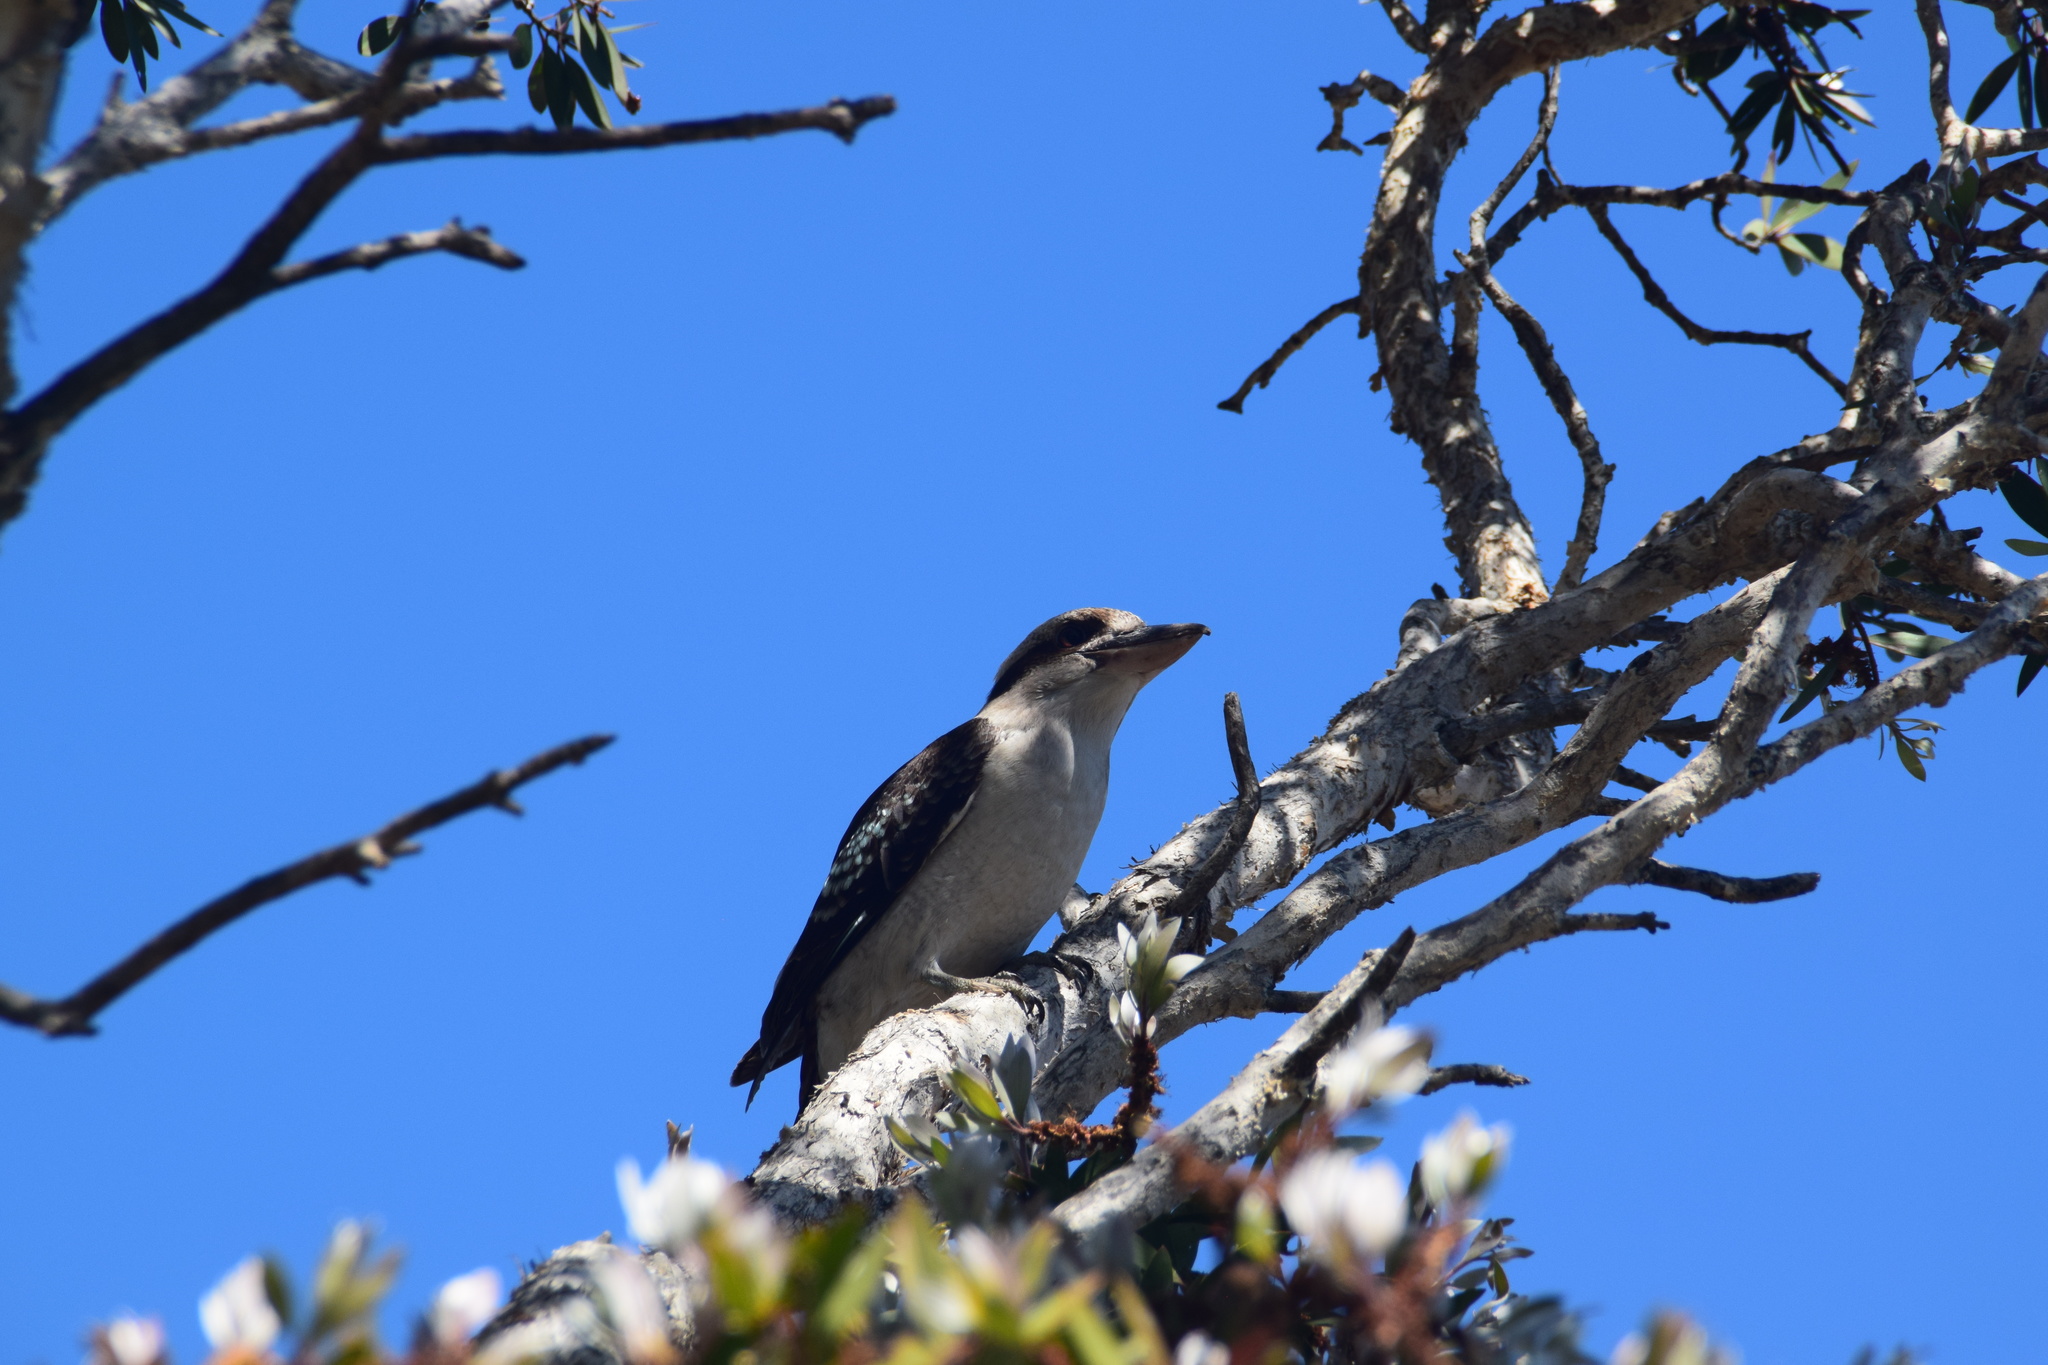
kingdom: Animalia
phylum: Chordata
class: Aves
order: Coraciiformes
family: Alcedinidae
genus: Dacelo
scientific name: Dacelo novaeguineae
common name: Laughing kookaburra
